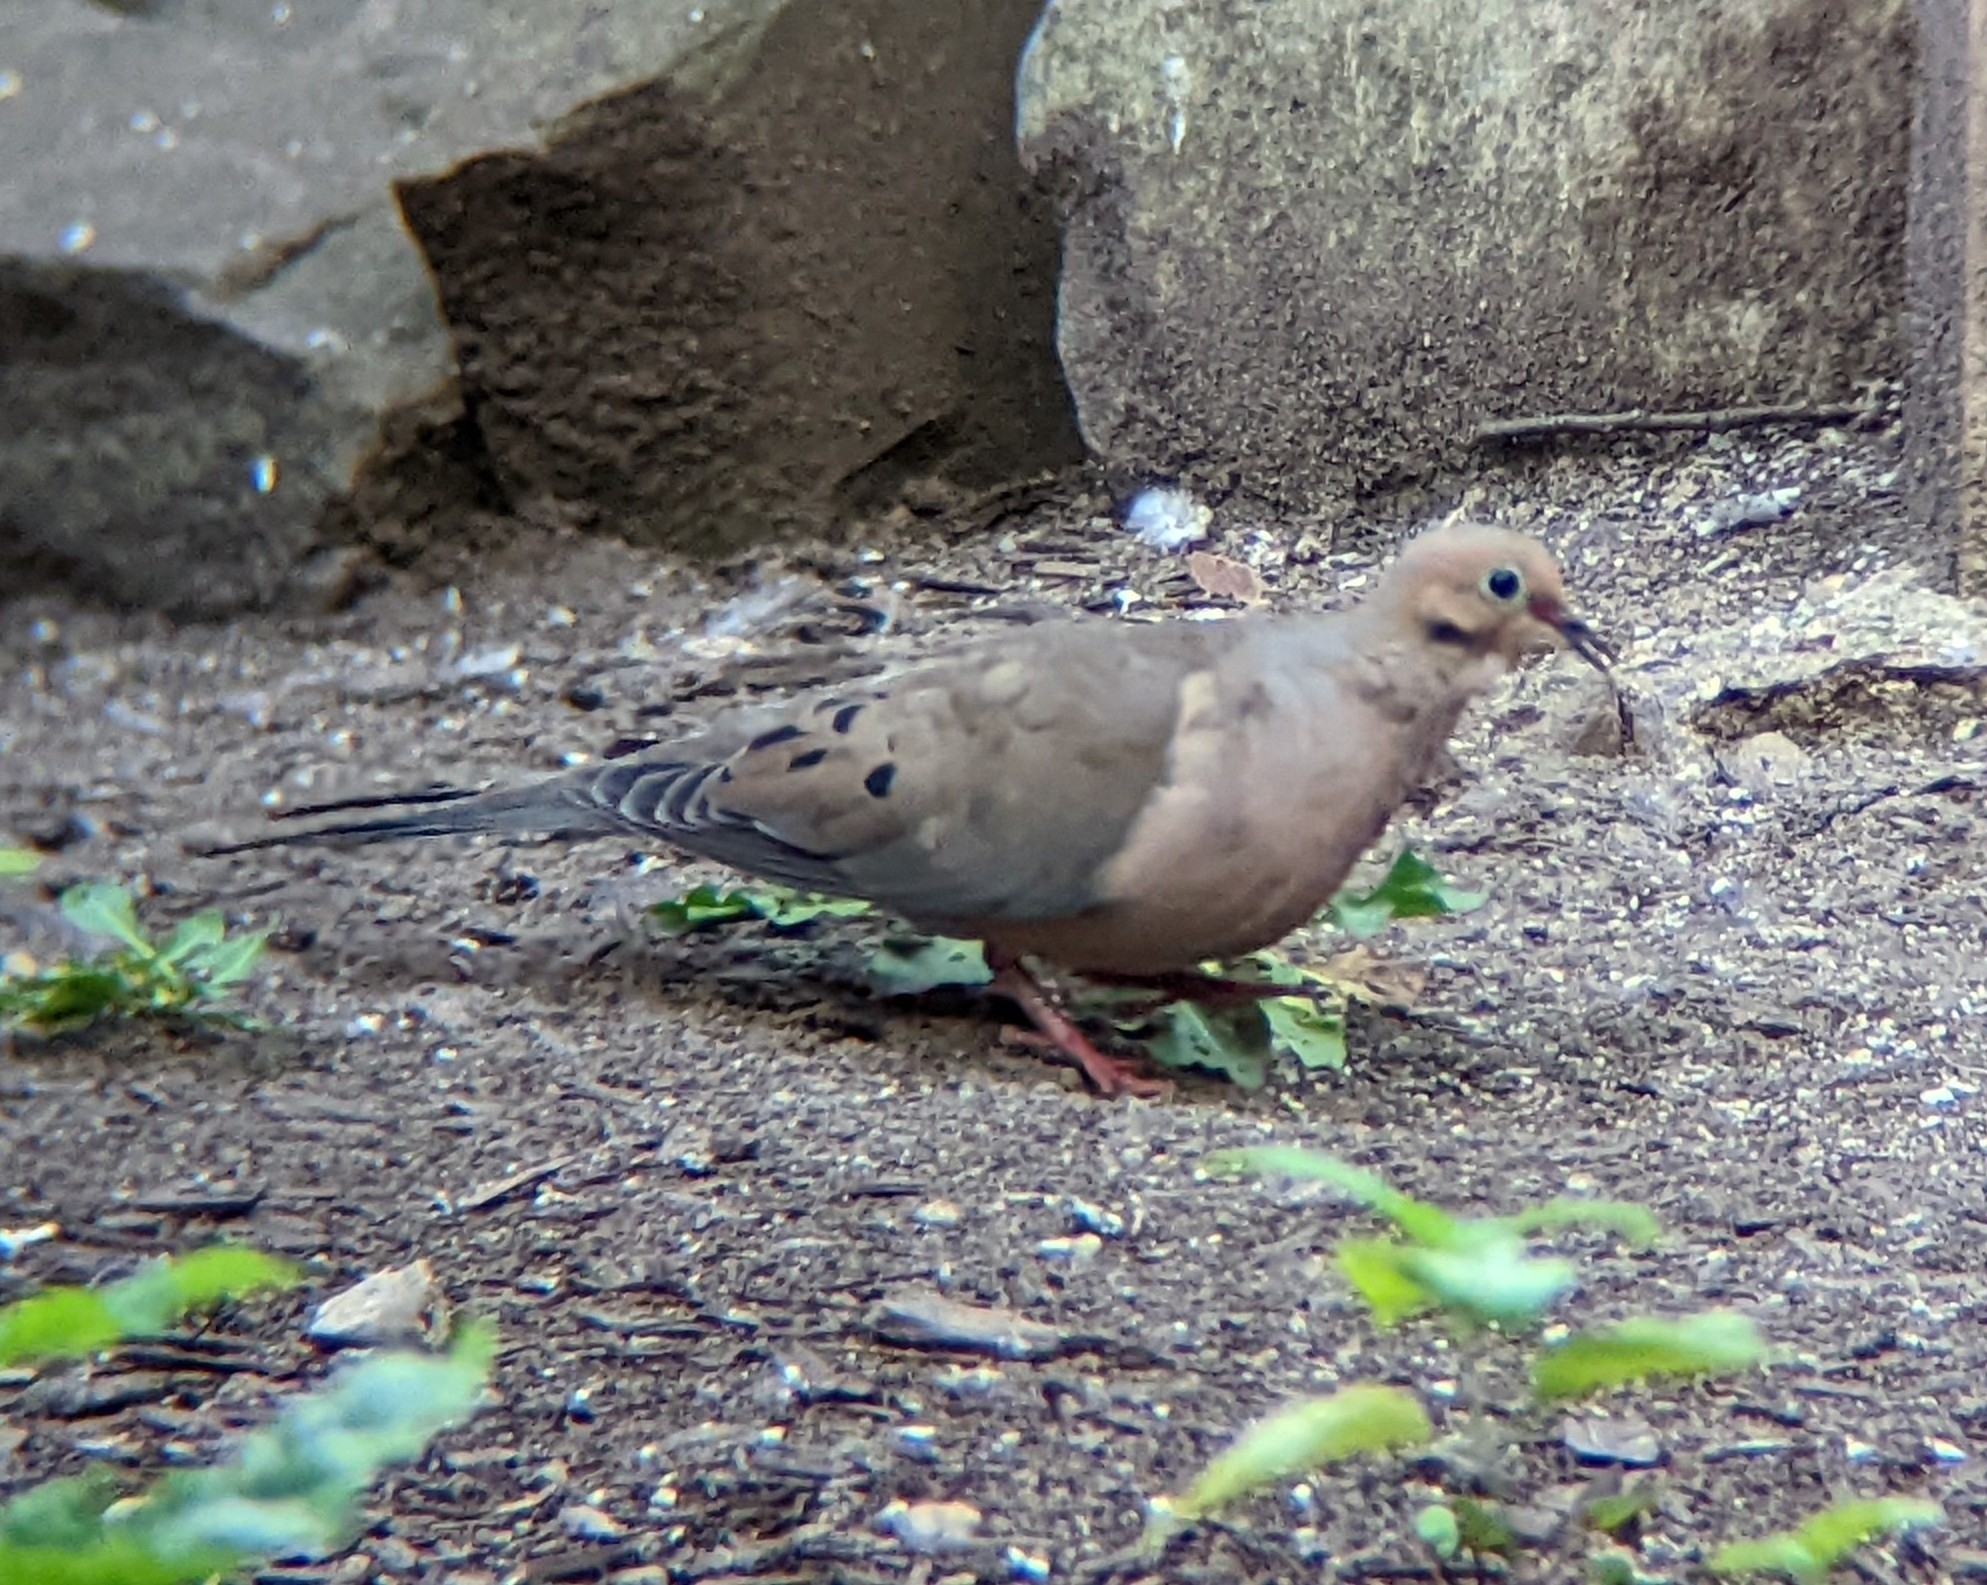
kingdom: Animalia
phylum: Chordata
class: Aves
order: Columbiformes
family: Columbidae
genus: Zenaida
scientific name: Zenaida macroura
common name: Mourning dove
